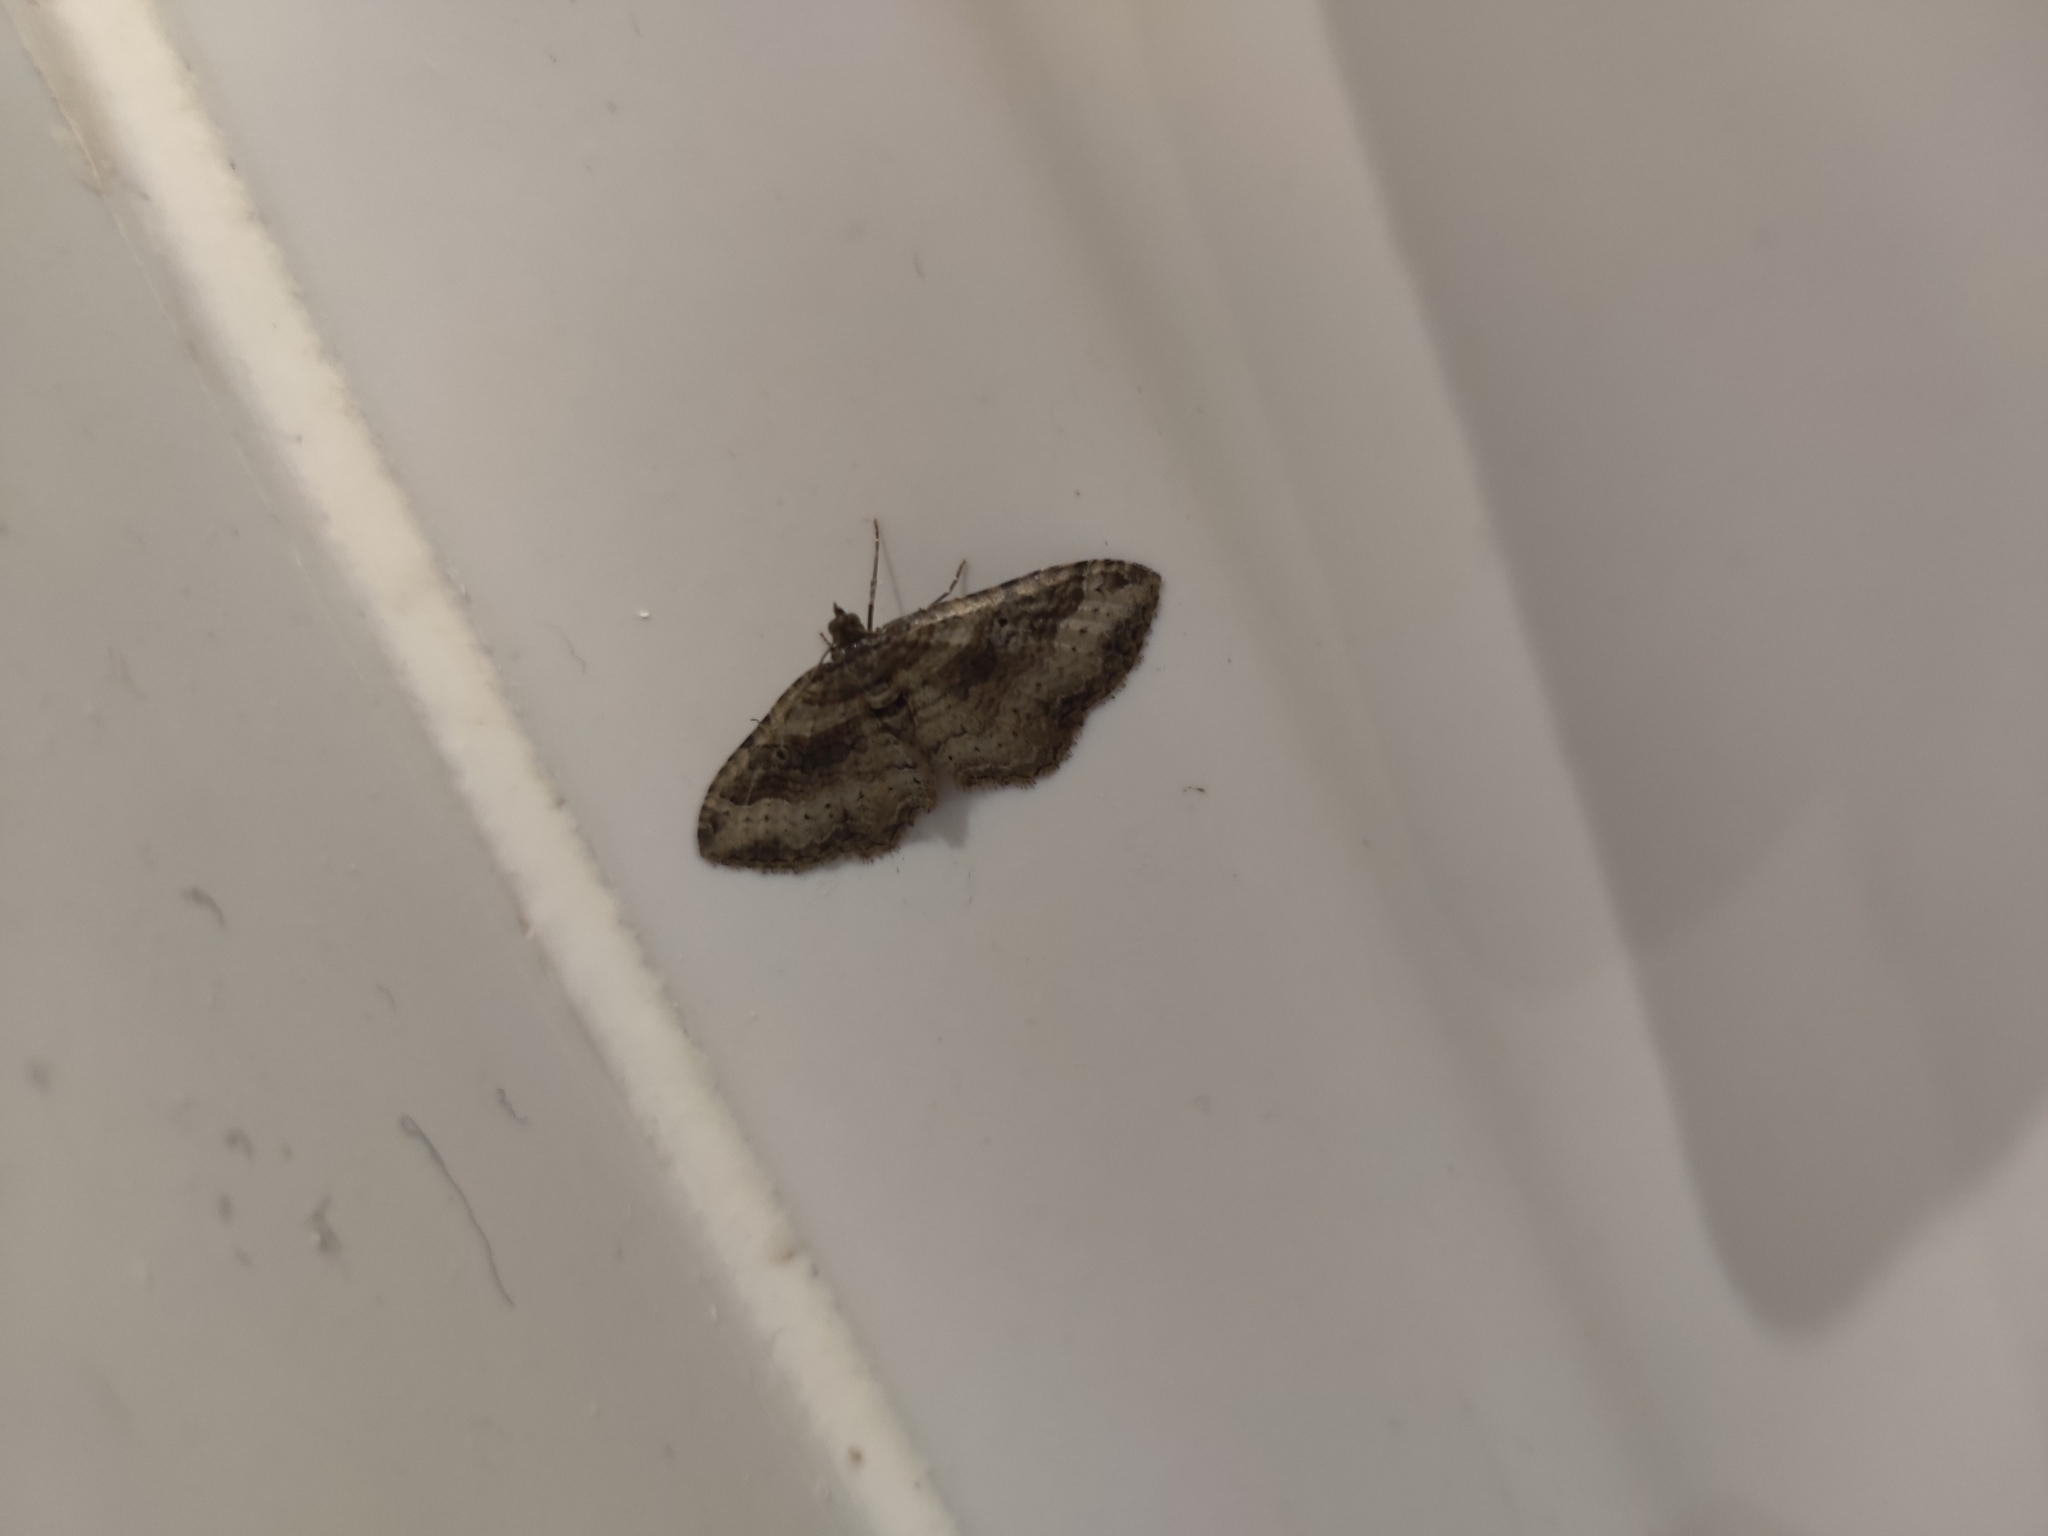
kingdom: Animalia
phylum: Arthropoda
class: Insecta
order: Lepidoptera
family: Geometridae
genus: Costaconvexa
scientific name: Costaconvexa centrostrigaria
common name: Bent-line carpet
